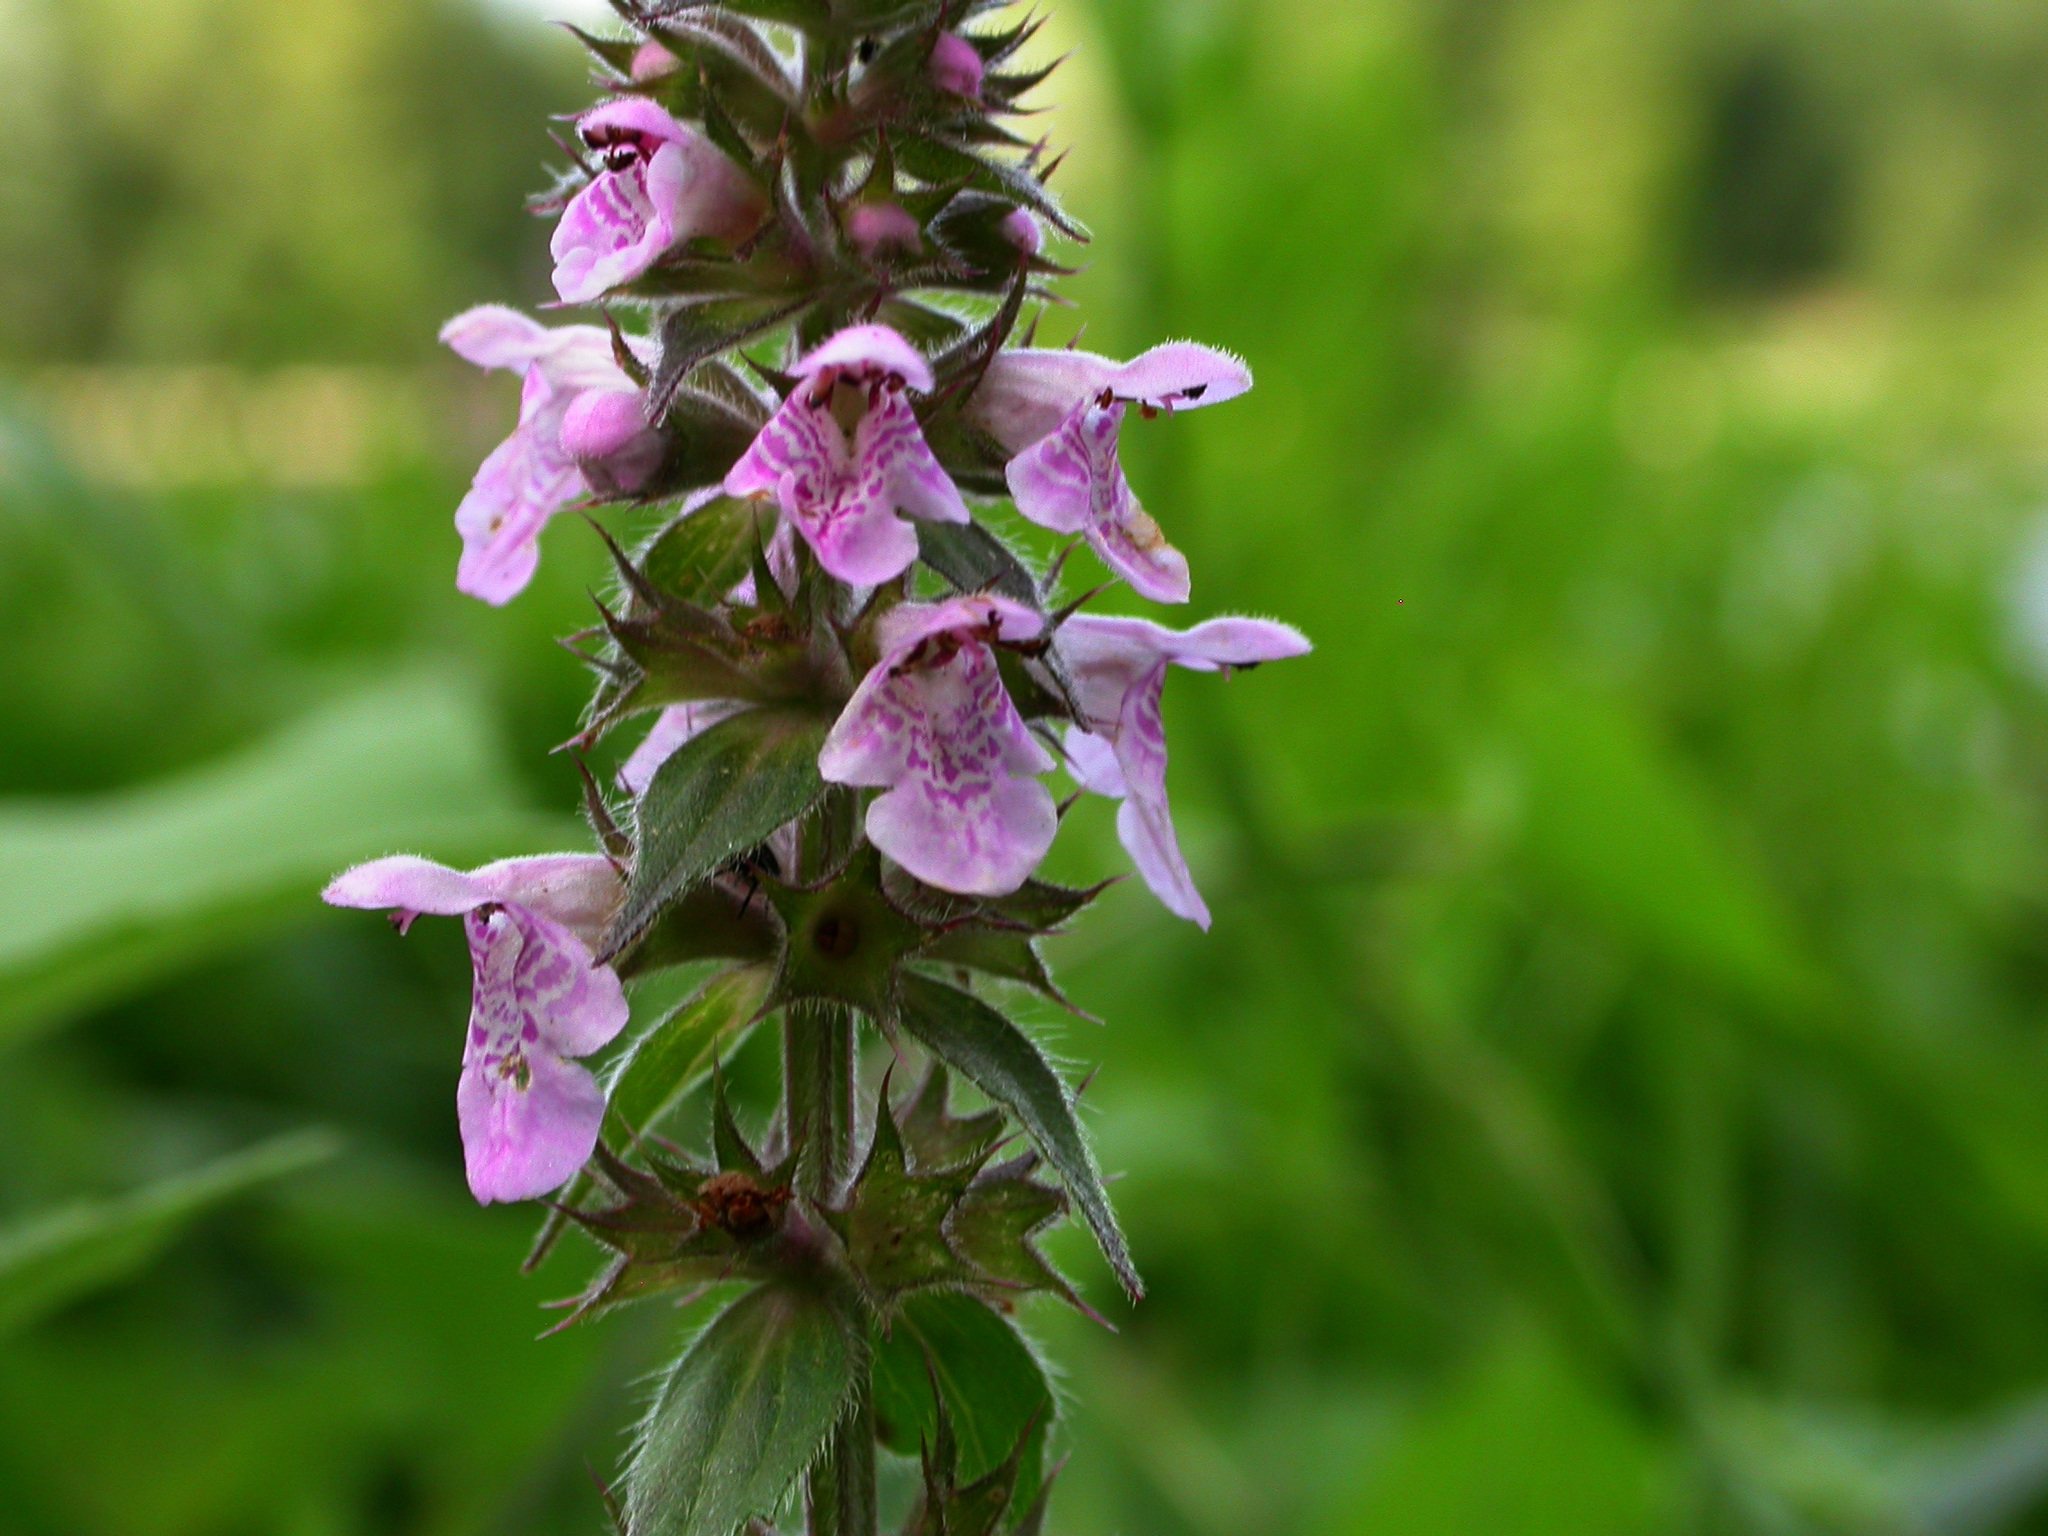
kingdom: Plantae
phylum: Tracheophyta
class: Magnoliopsida
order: Lamiales
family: Lamiaceae
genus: Stachys
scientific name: Stachys palustris
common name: Marsh woundwort
